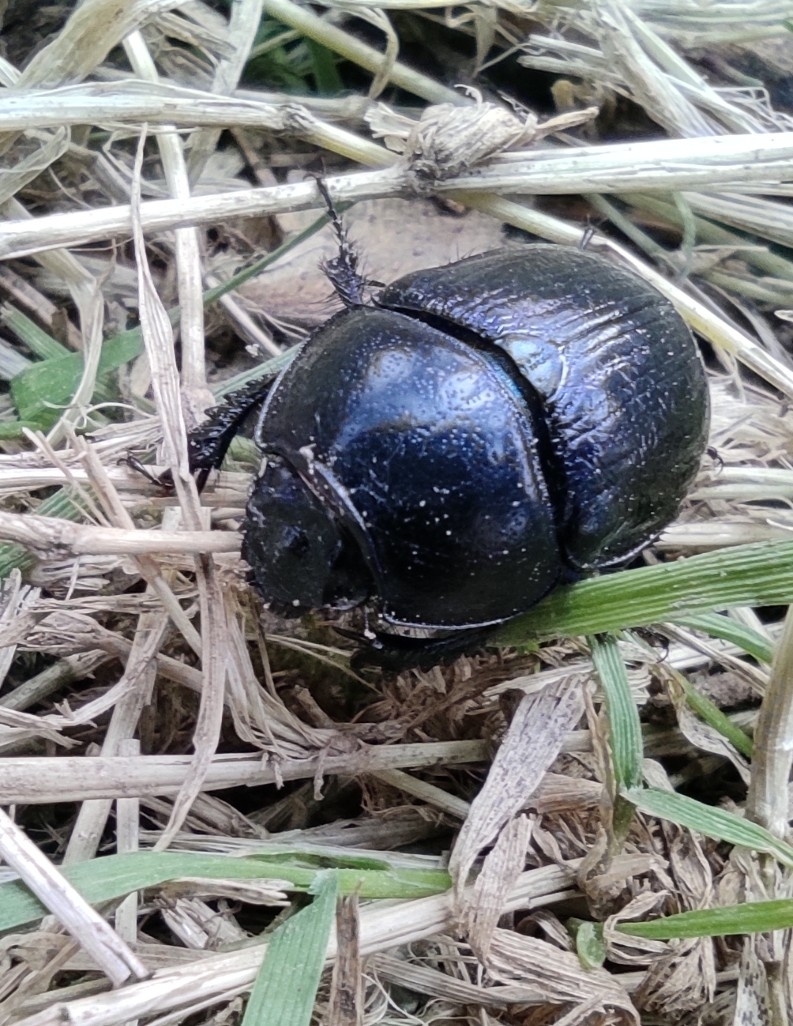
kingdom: Animalia
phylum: Arthropoda
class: Insecta
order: Coleoptera
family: Geotrupidae
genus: Anoplotrupes
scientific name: Anoplotrupes stercorosus
